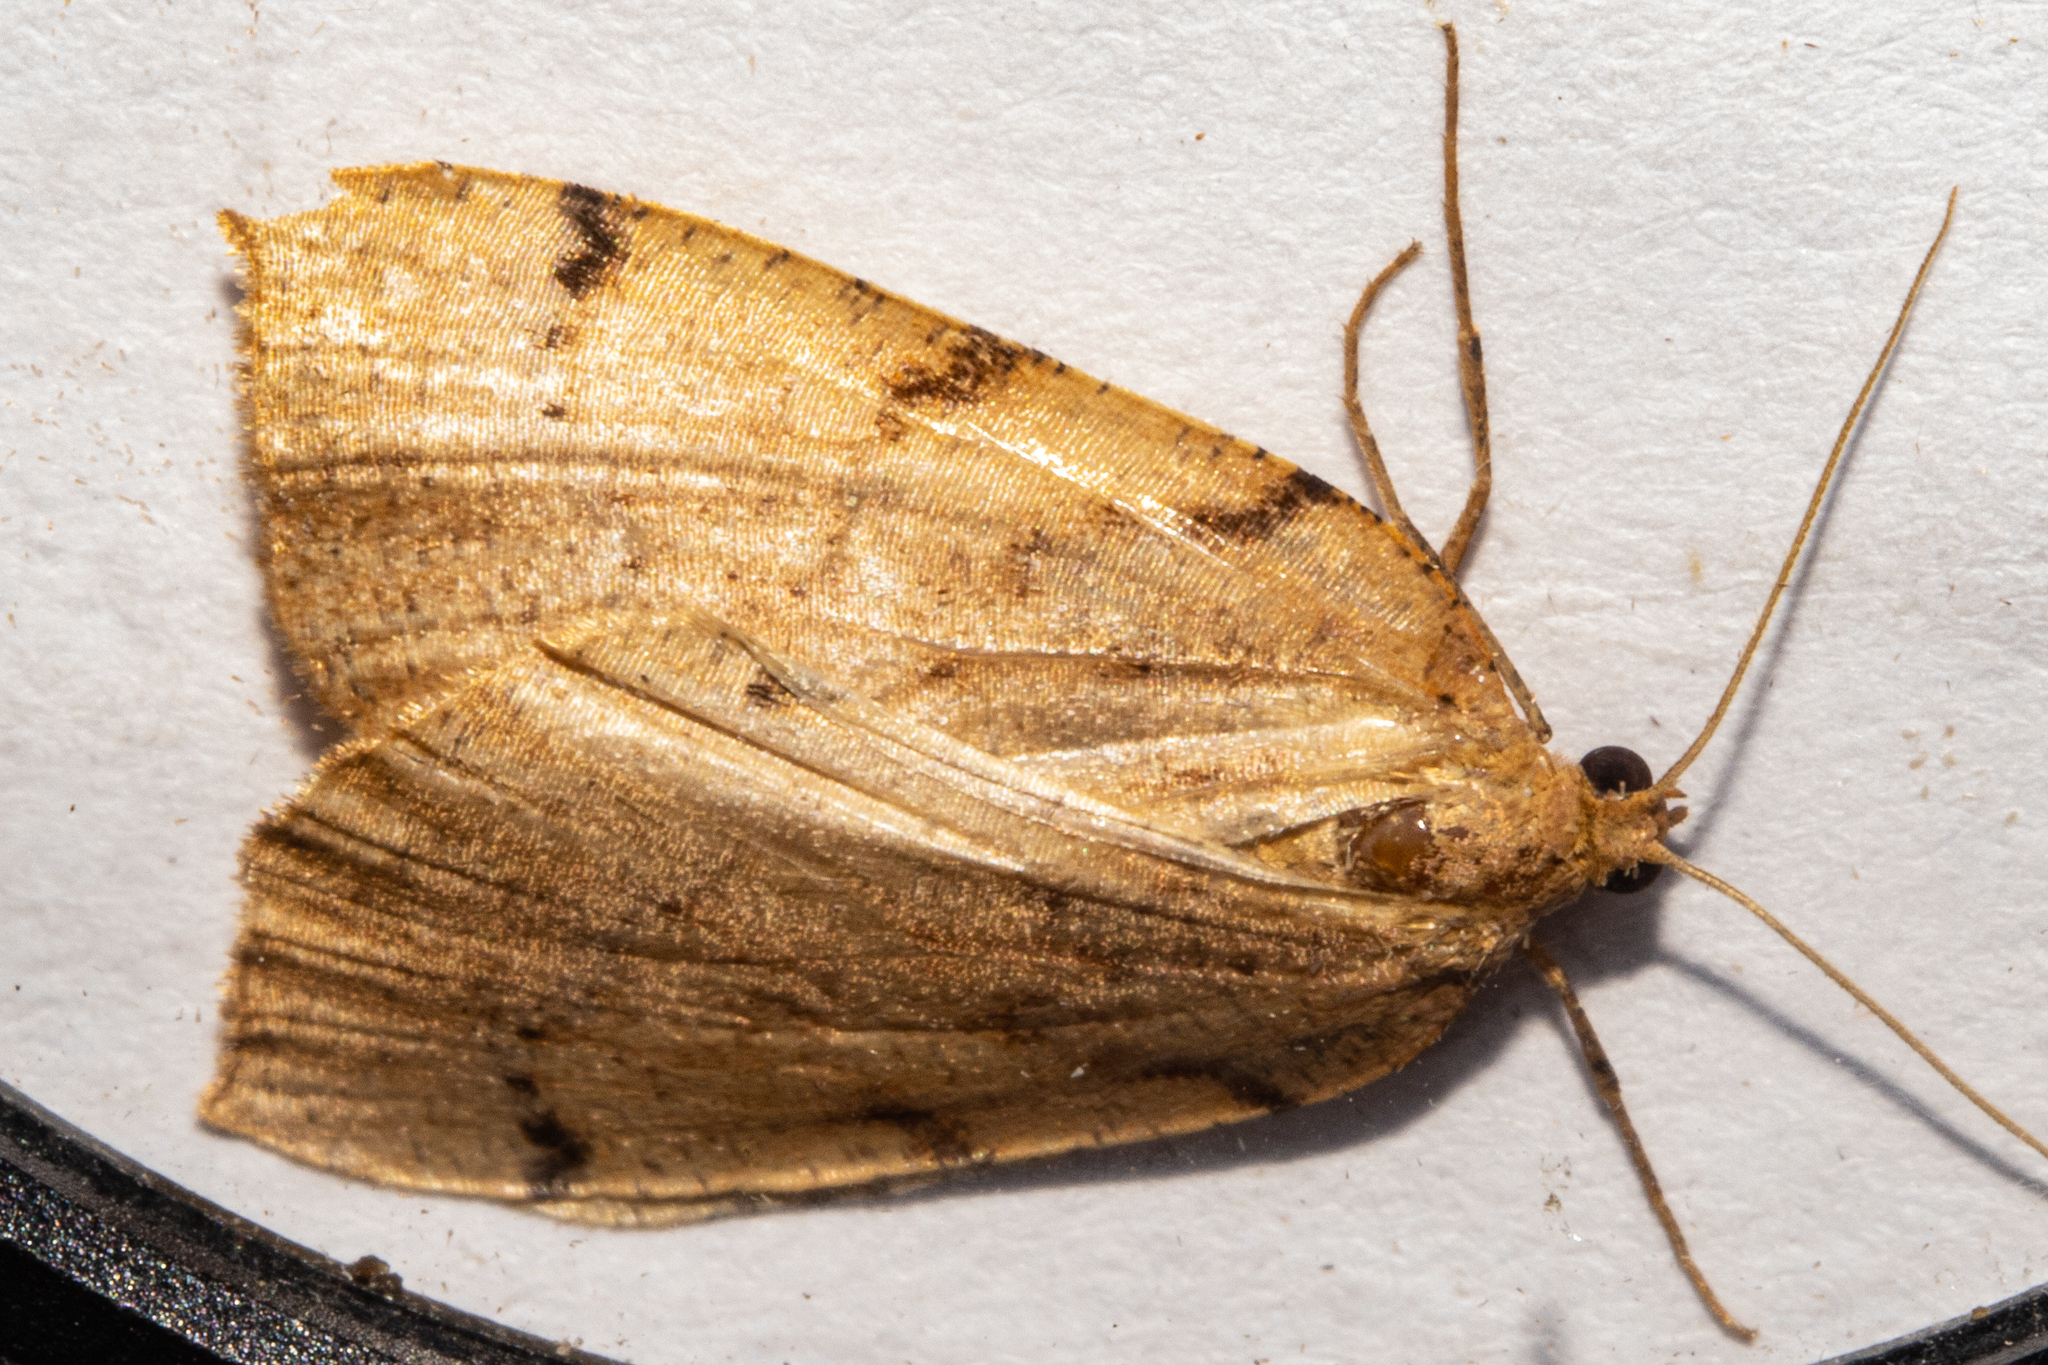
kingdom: Animalia
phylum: Arthropoda
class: Insecta
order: Lepidoptera
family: Geometridae
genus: Sestra
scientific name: Sestra humeraria
